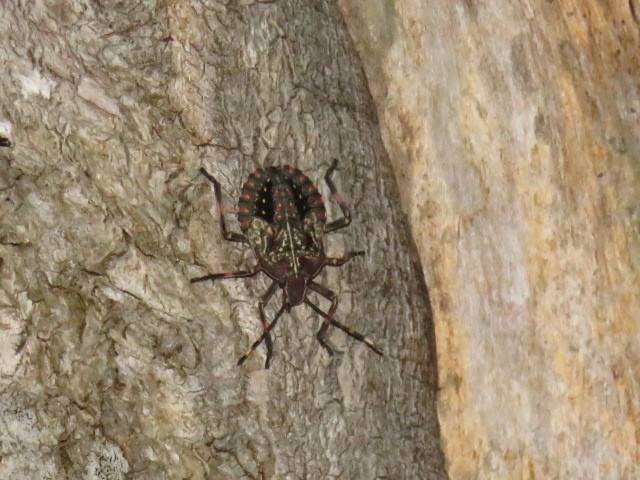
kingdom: Animalia
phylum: Arthropoda
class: Insecta
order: Hemiptera
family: Pentatomidae
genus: Coenomorpha
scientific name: Coenomorpha nervosa
